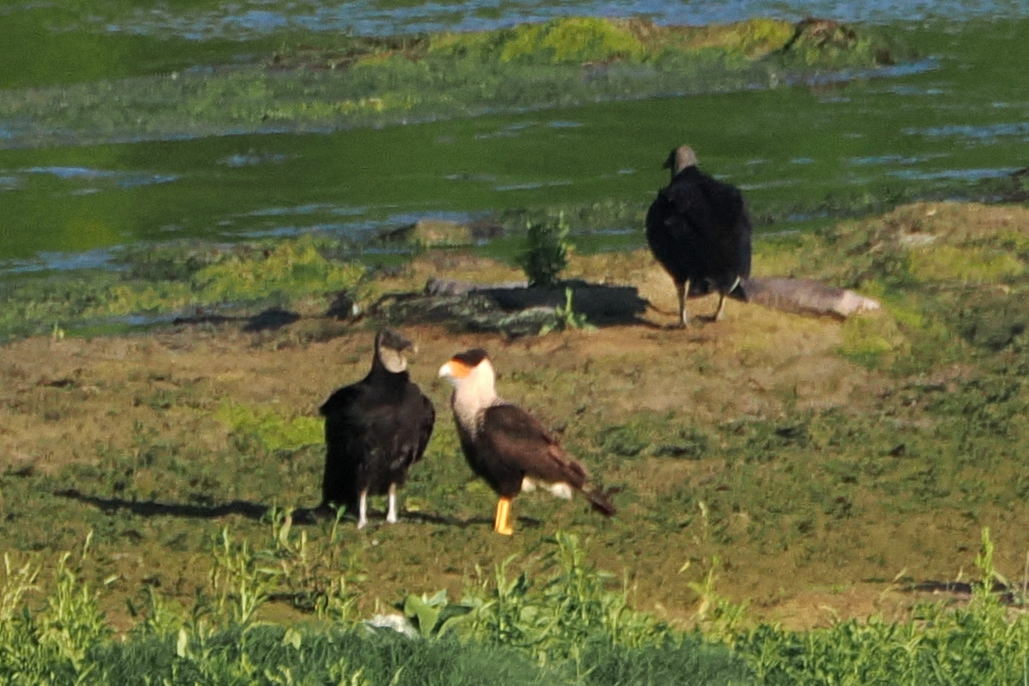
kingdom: Animalia
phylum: Chordata
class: Aves
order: Falconiformes
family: Falconidae
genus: Caracara
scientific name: Caracara plancus
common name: Southern caracara
